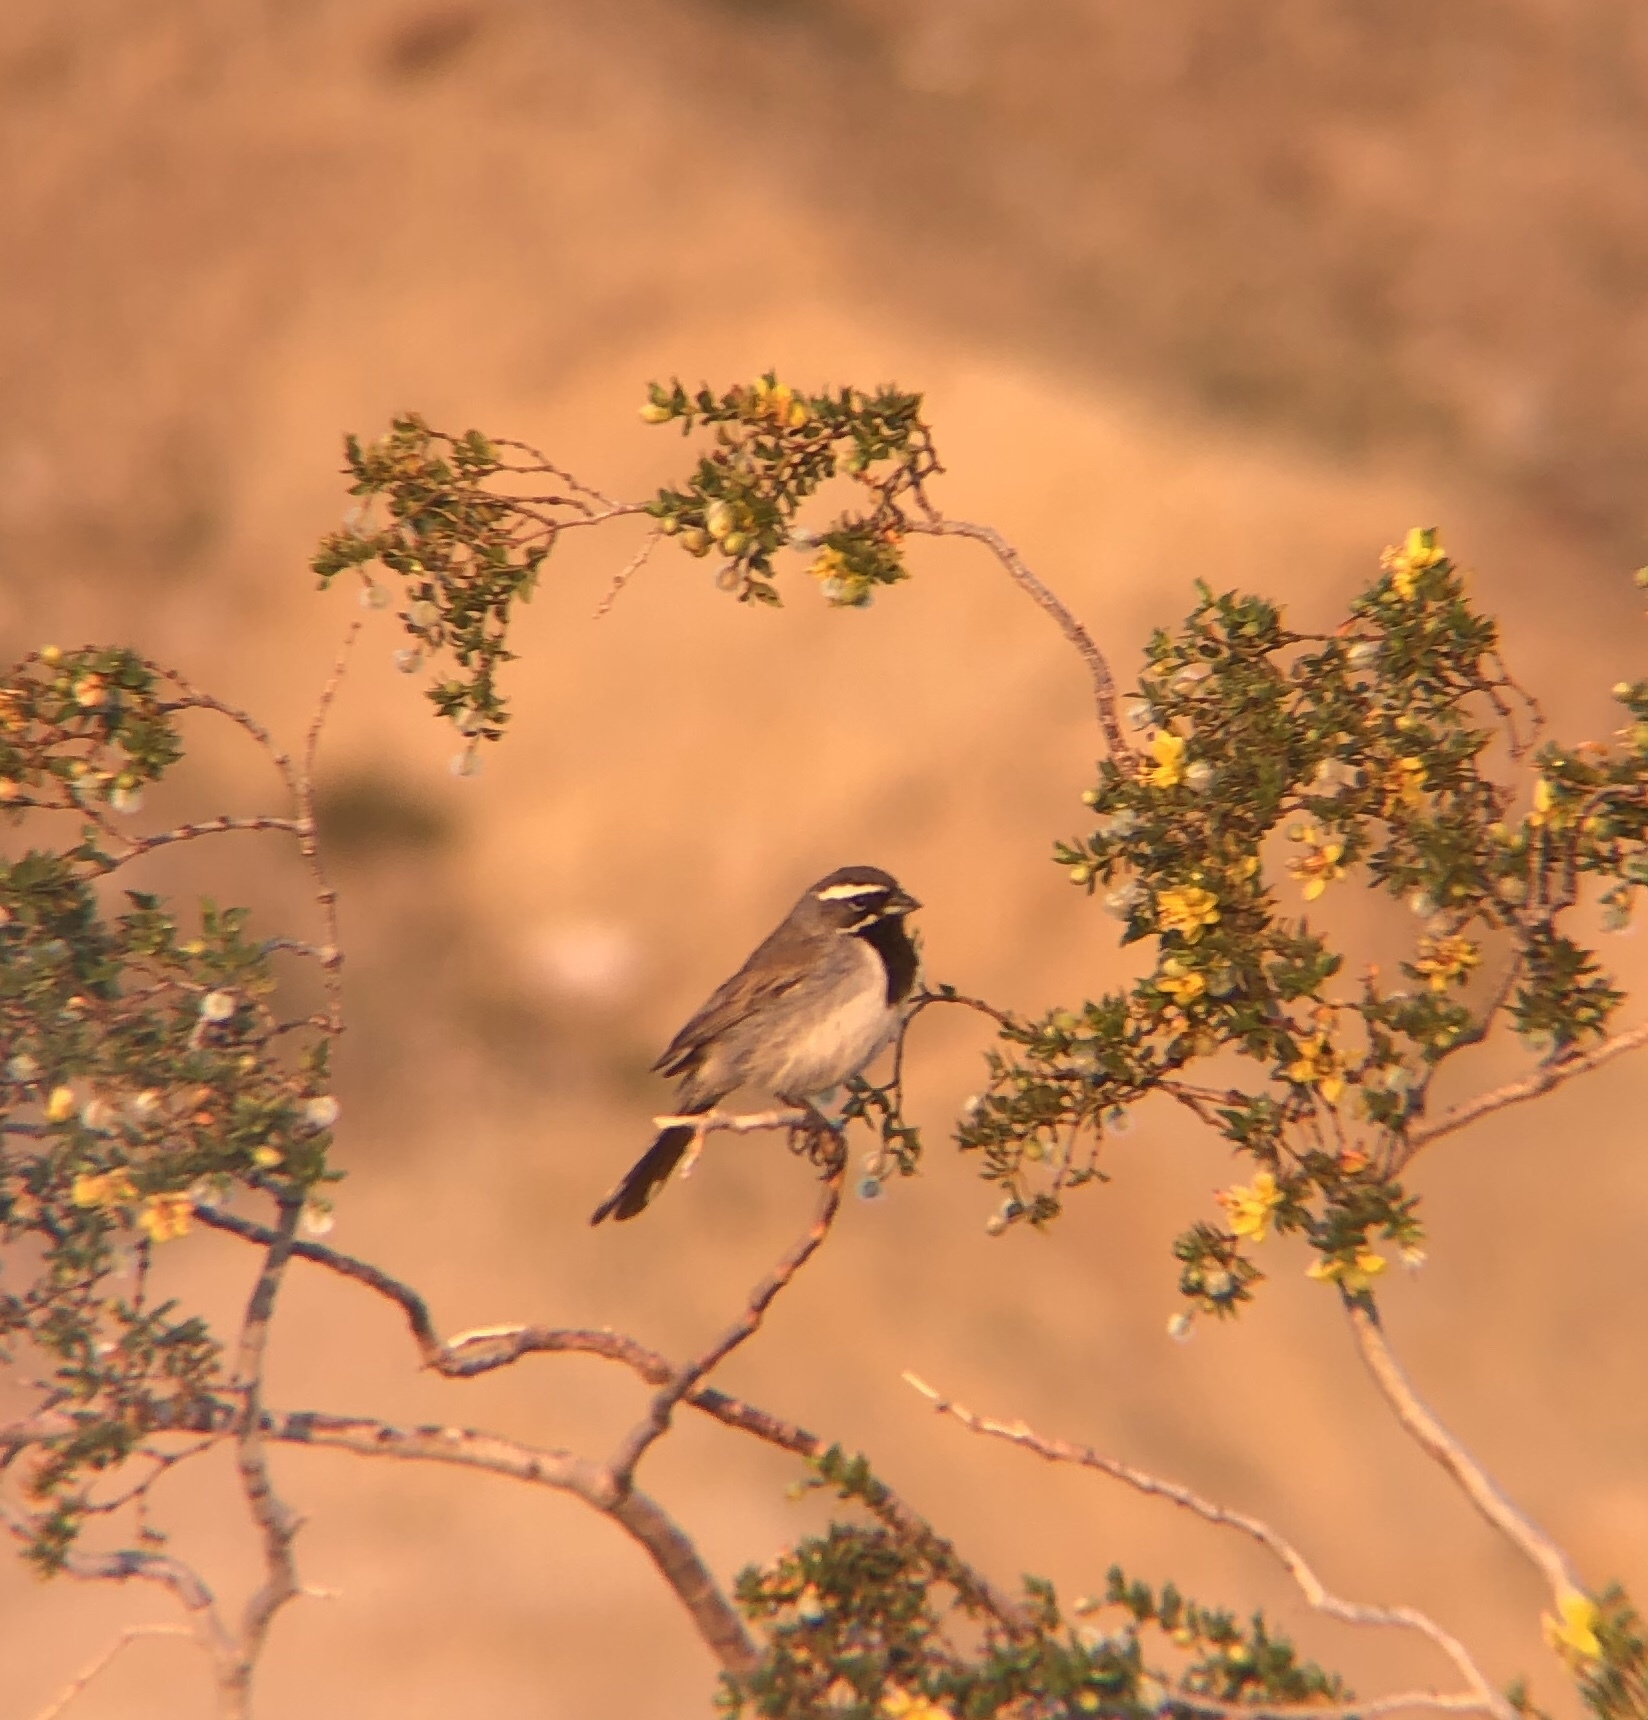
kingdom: Animalia
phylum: Chordata
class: Aves
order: Passeriformes
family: Passerellidae
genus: Amphispiza
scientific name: Amphispiza bilineata
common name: Black-throated sparrow
